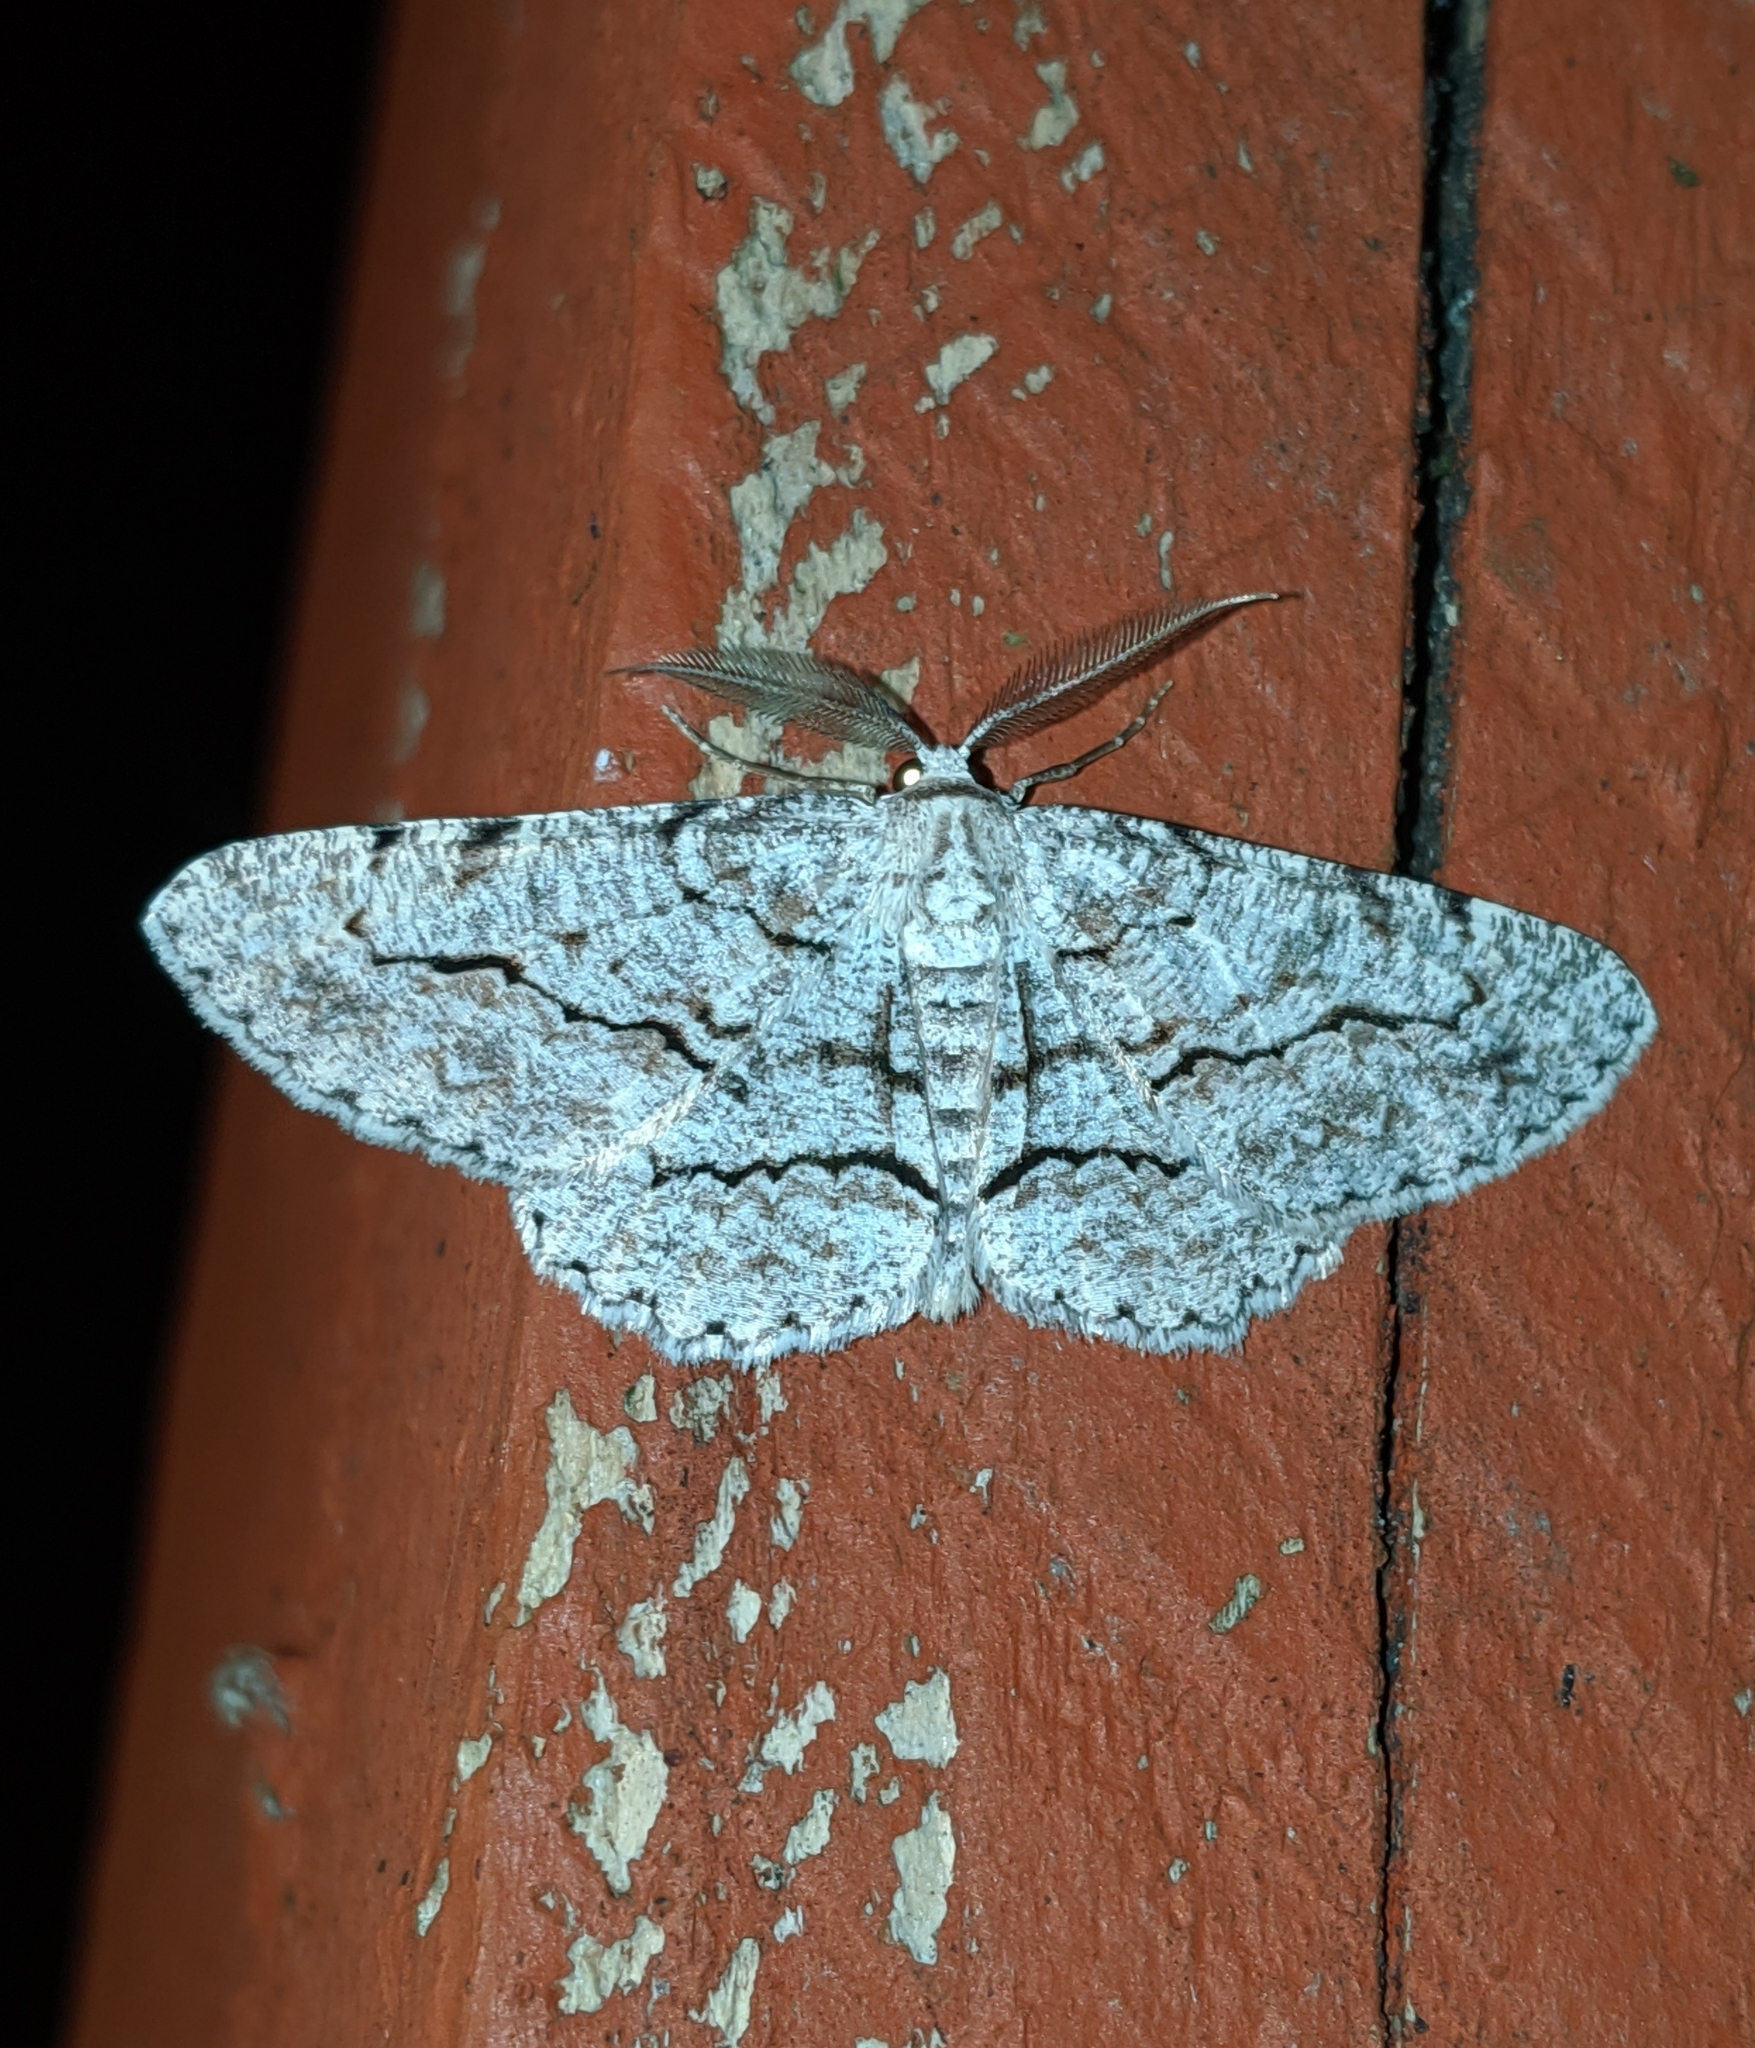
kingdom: Animalia
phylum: Arthropoda
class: Insecta
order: Lepidoptera
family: Geometridae
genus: Stenoporpia
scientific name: Stenoporpia pulmonaria
